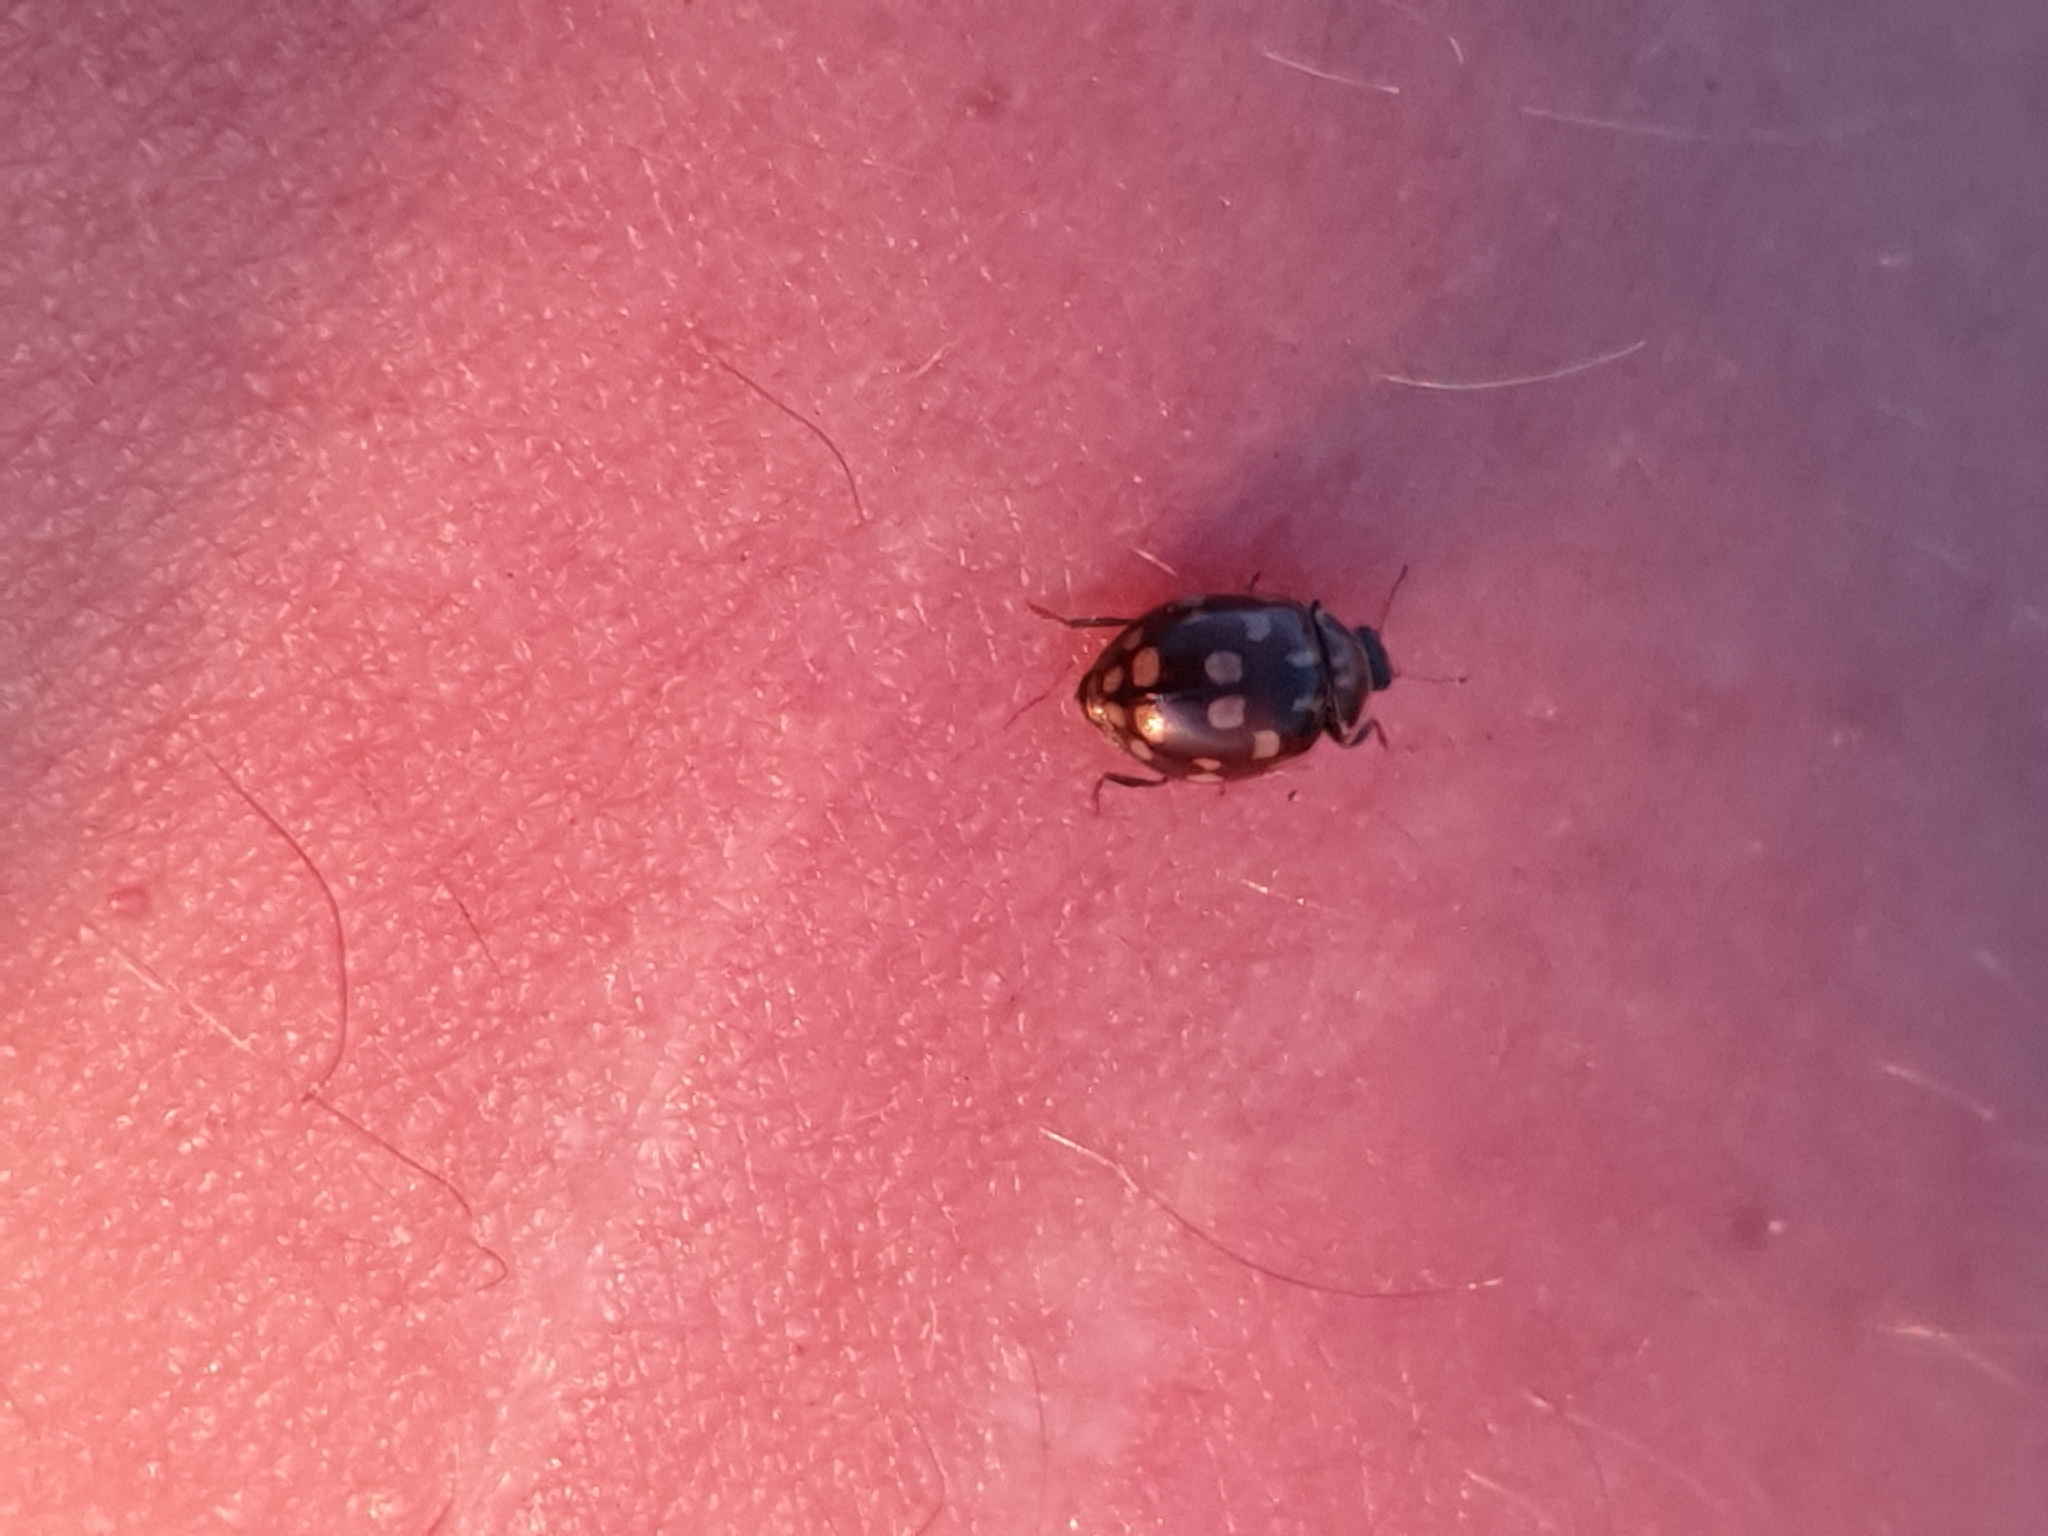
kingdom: Animalia
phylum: Arthropoda
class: Insecta
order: Coleoptera
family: Coccinellidae
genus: Myrrha
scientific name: Myrrha octodecimguttata
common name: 18-spot ladybird
